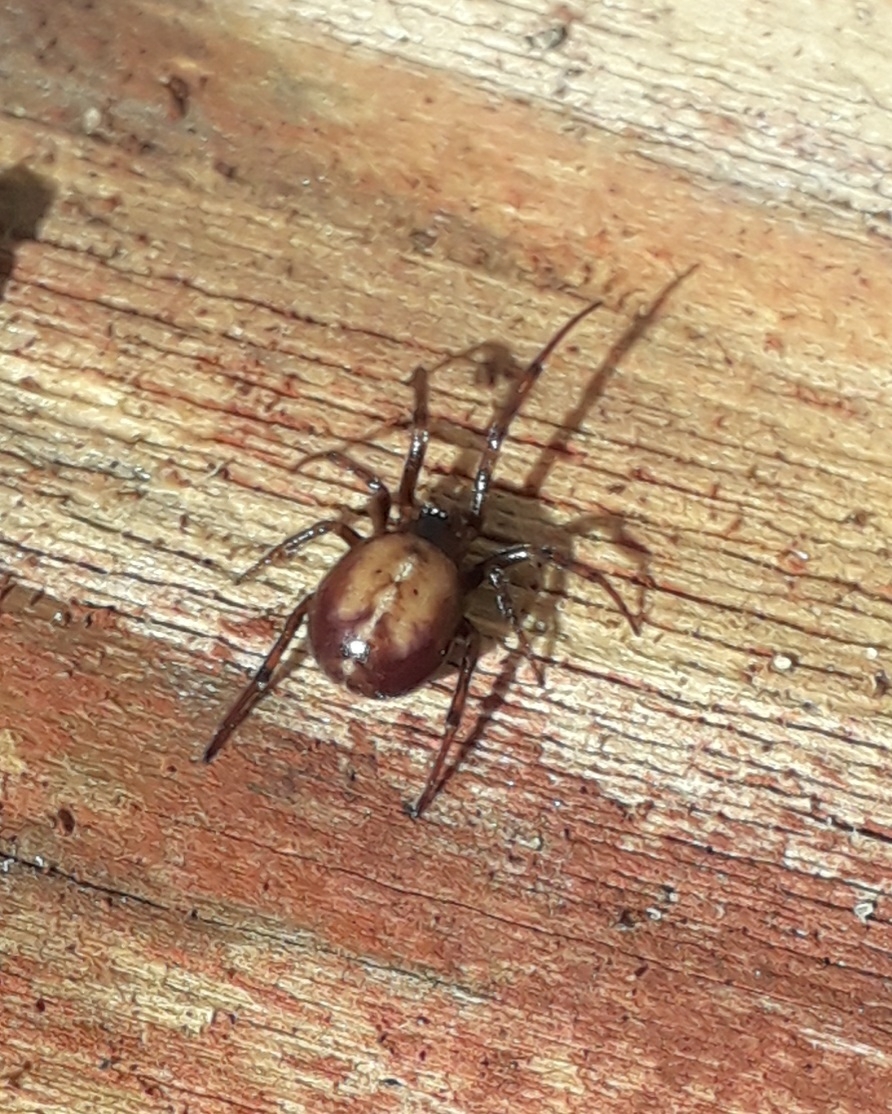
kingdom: Animalia
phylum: Arthropoda
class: Arachnida
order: Araneae
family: Theridiidae
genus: Steatoda
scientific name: Steatoda bipunctata
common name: False widow
